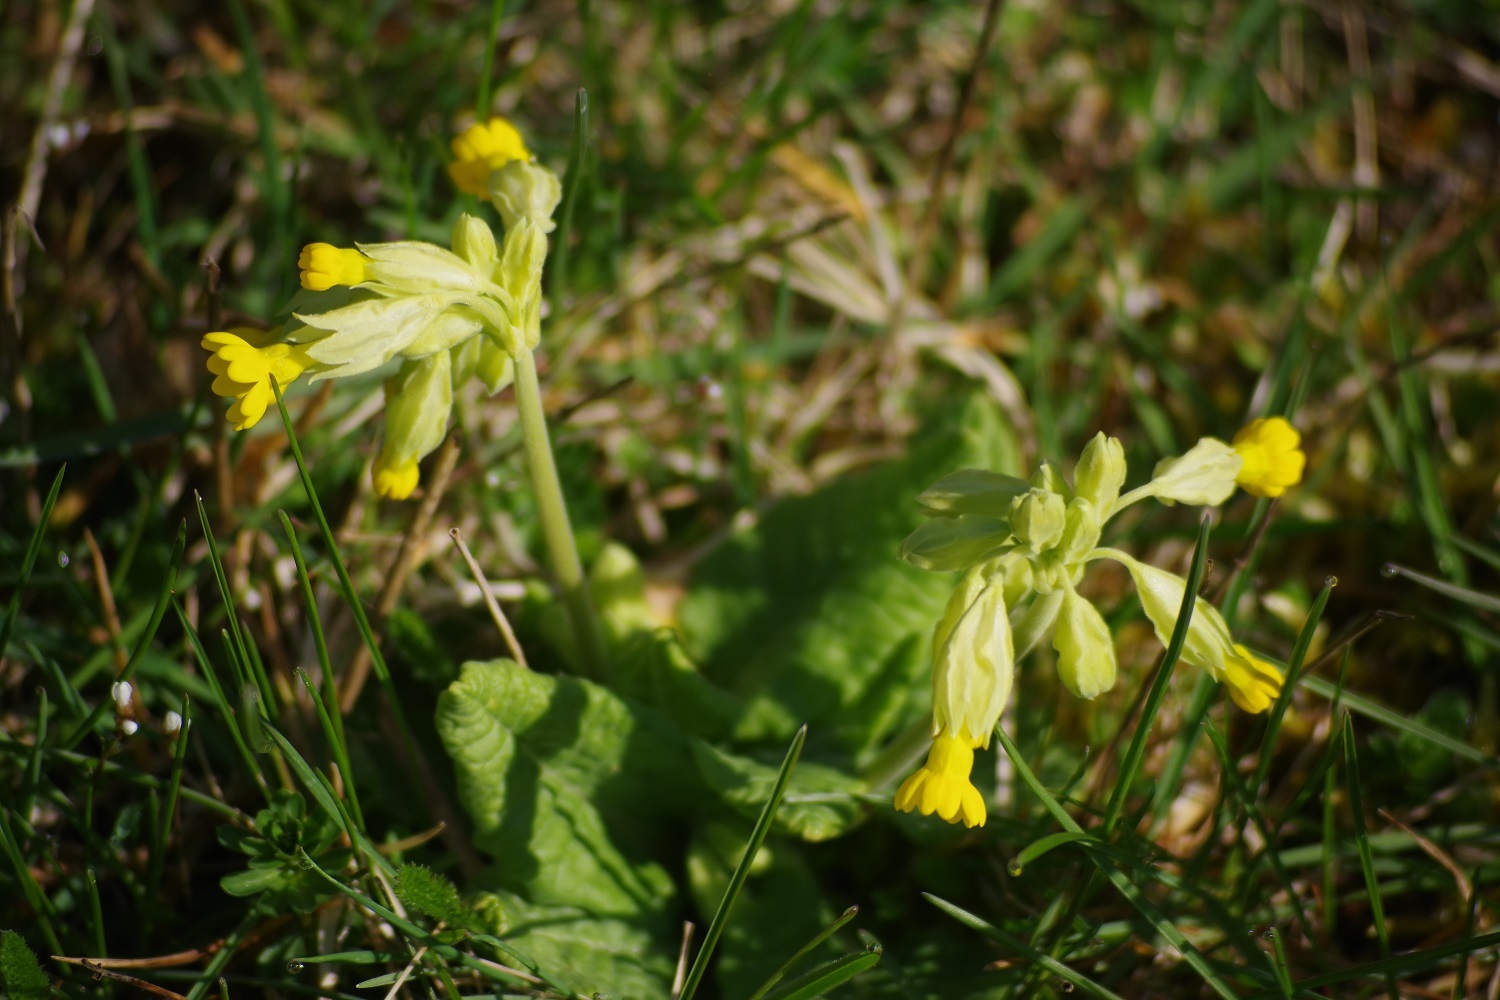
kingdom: Plantae
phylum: Tracheophyta
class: Magnoliopsida
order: Ericales
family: Primulaceae
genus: Primula
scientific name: Primula veris
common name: Cowslip
